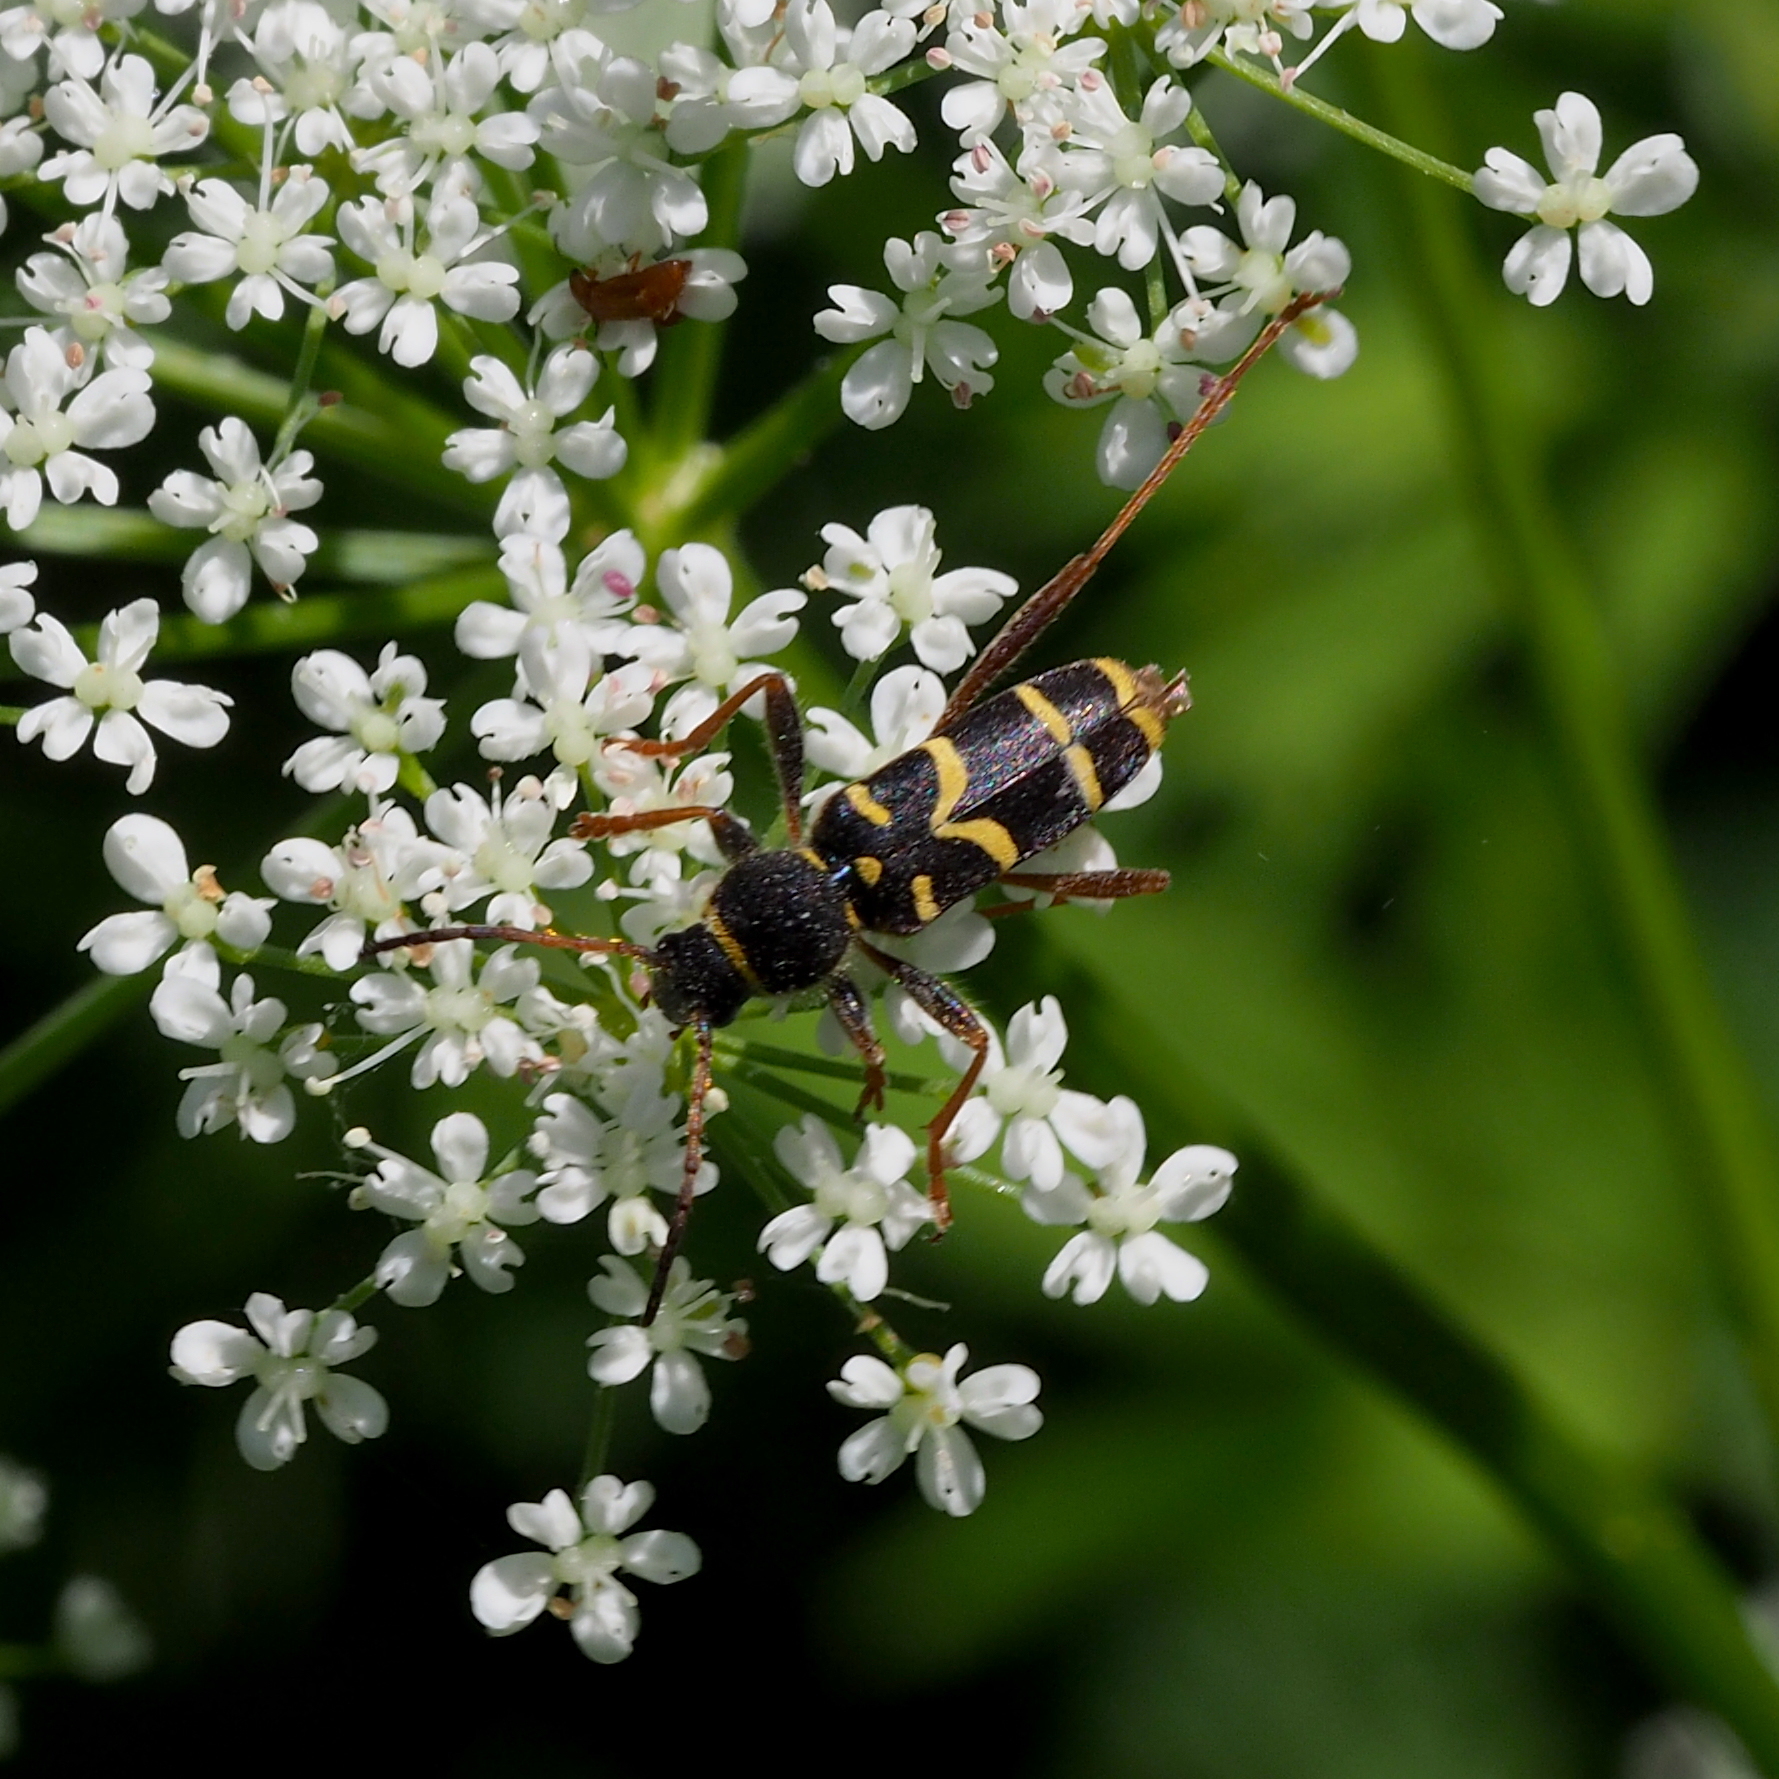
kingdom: Animalia
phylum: Arthropoda
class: Insecta
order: Coleoptera
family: Cerambycidae
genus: Clytus
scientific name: Clytus arietis
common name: Wasp beetle
